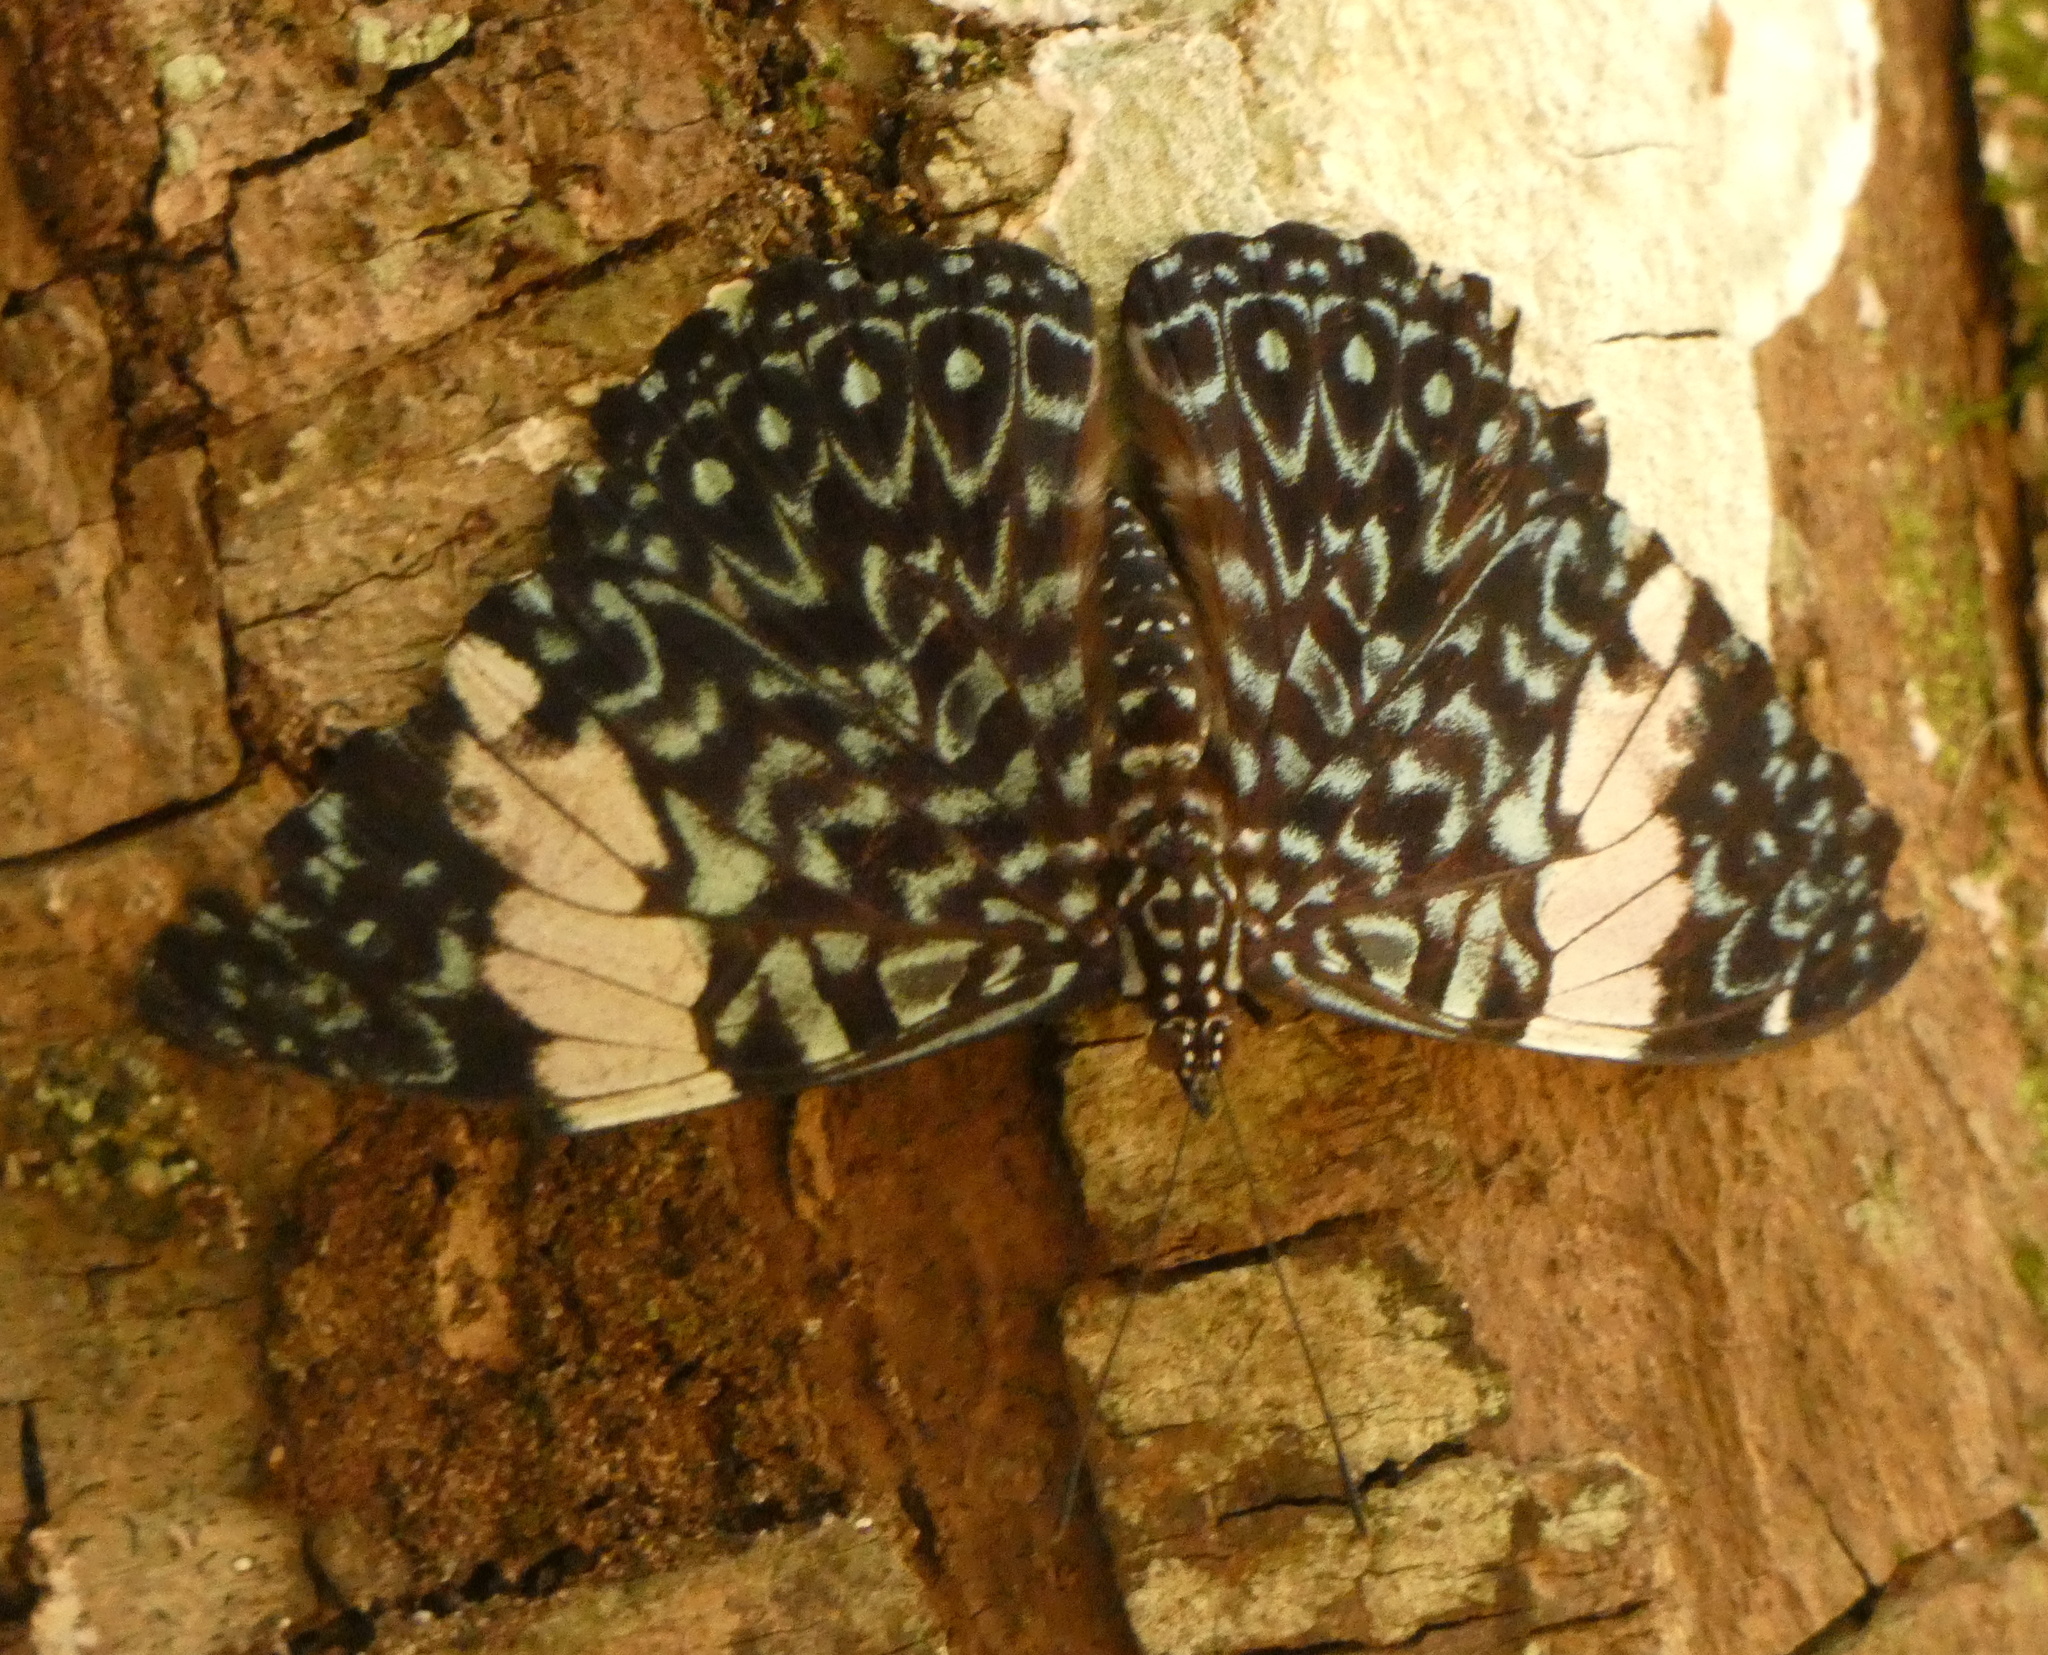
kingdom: Animalia
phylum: Arthropoda
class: Insecta
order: Lepidoptera
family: Nymphalidae
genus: Hamadryas
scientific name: Hamadryas amphinome
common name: Red cracker
